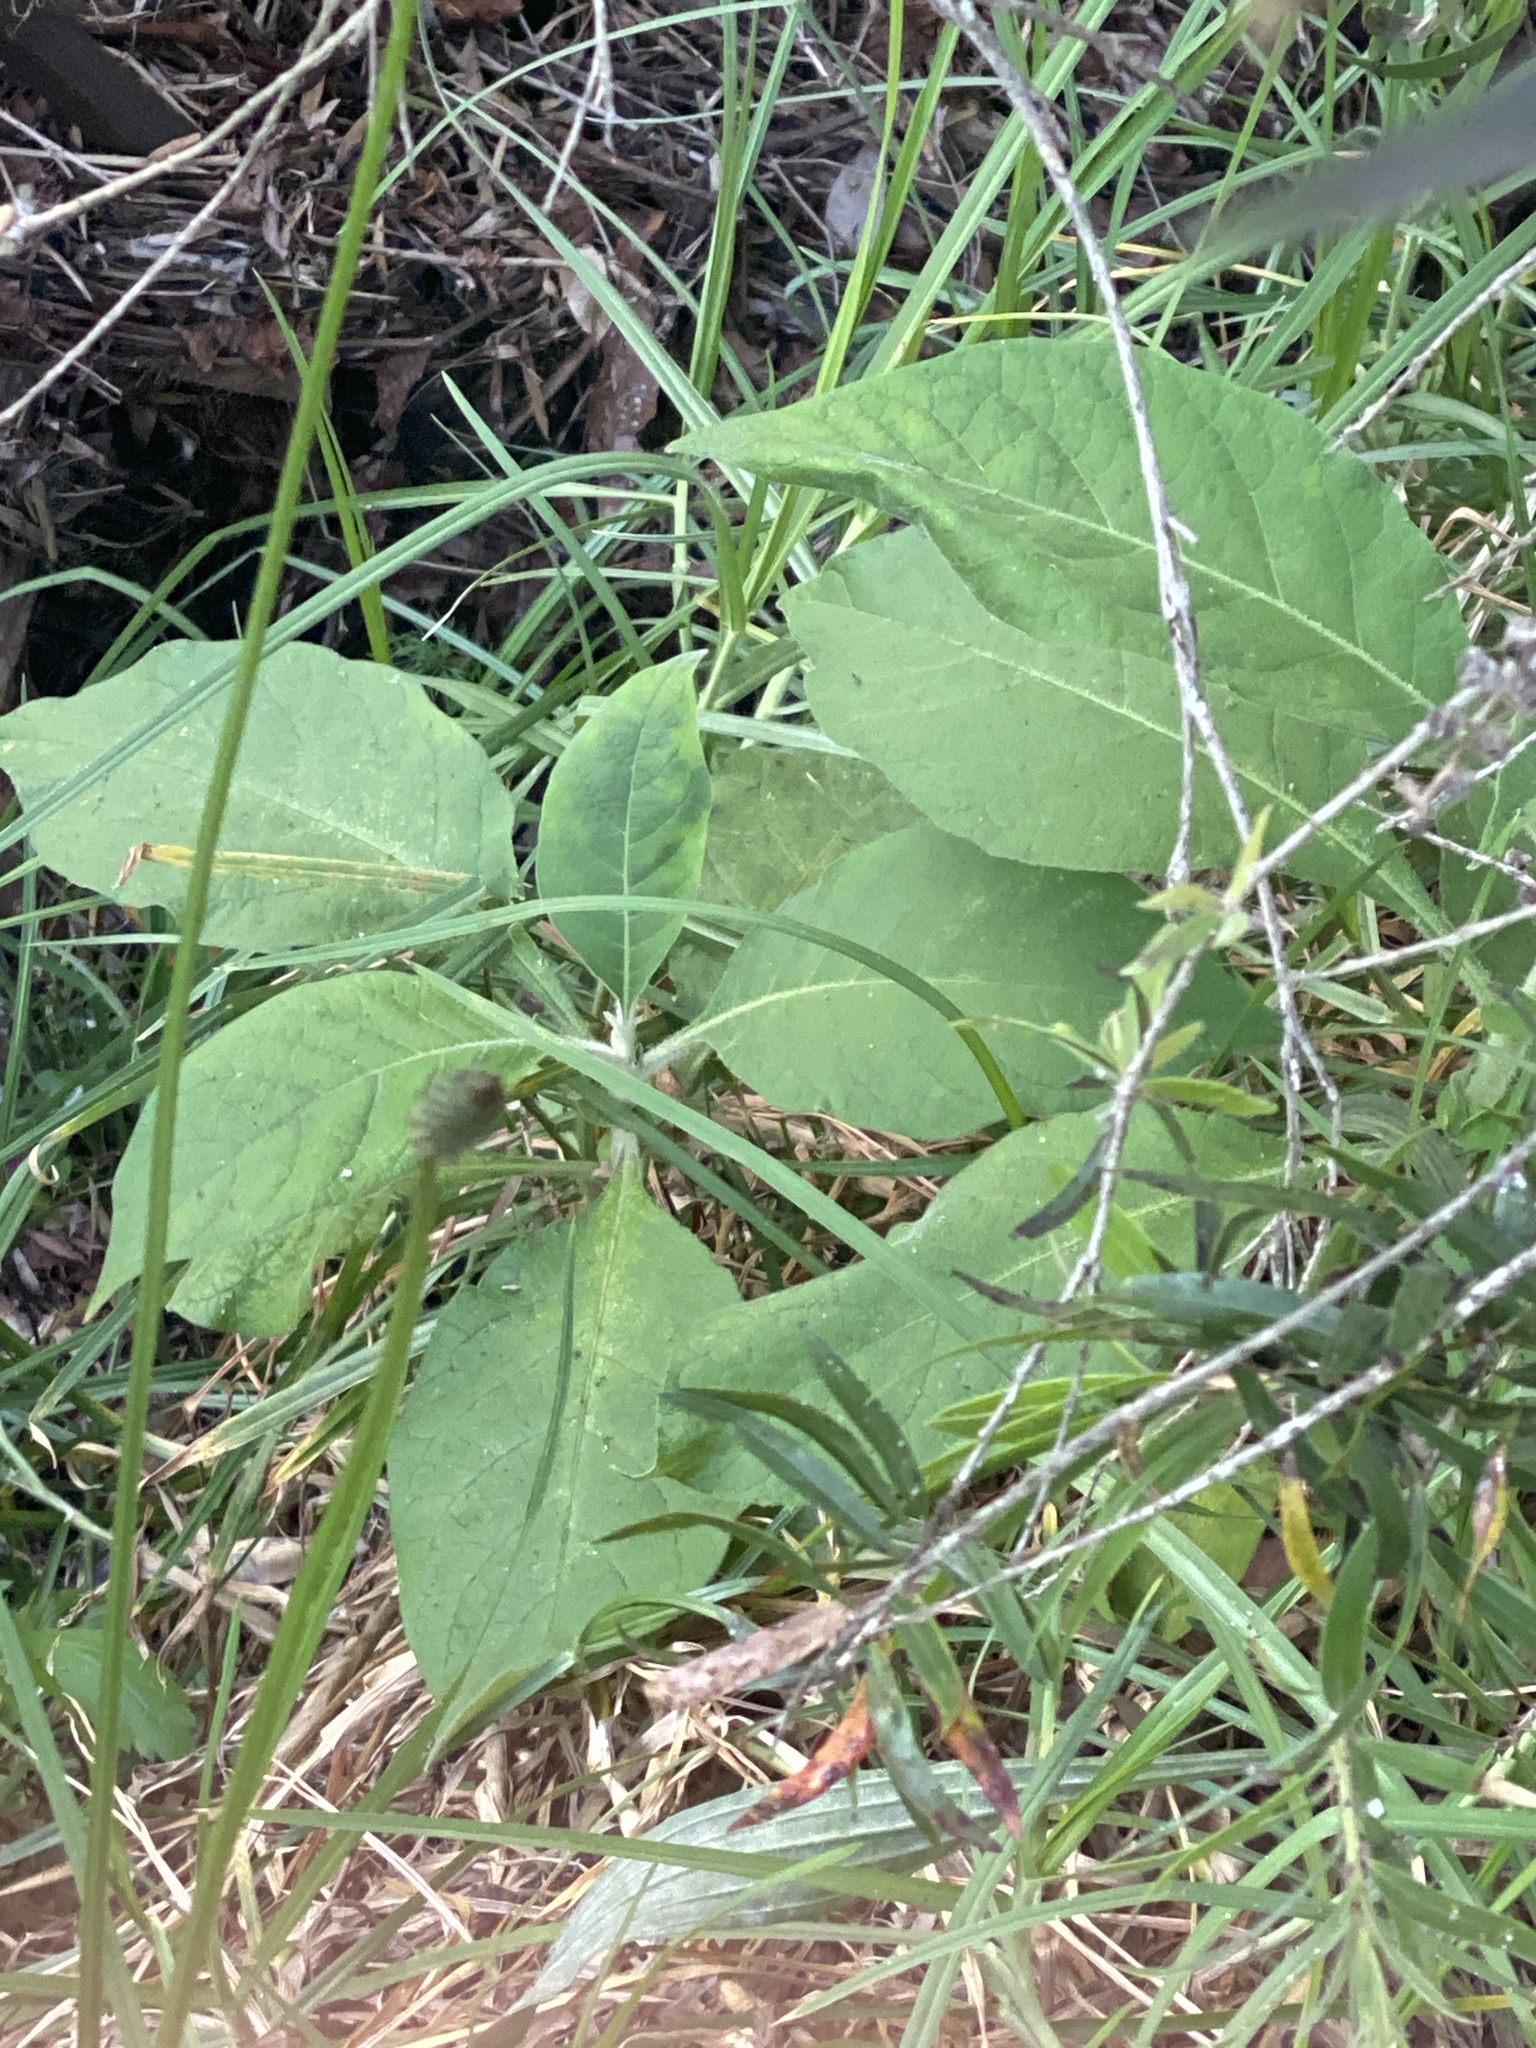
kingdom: Plantae
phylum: Tracheophyta
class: Magnoliopsida
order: Solanales
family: Solanaceae
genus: Solanum
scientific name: Solanum mauritianum
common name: Earleaf nightshade
